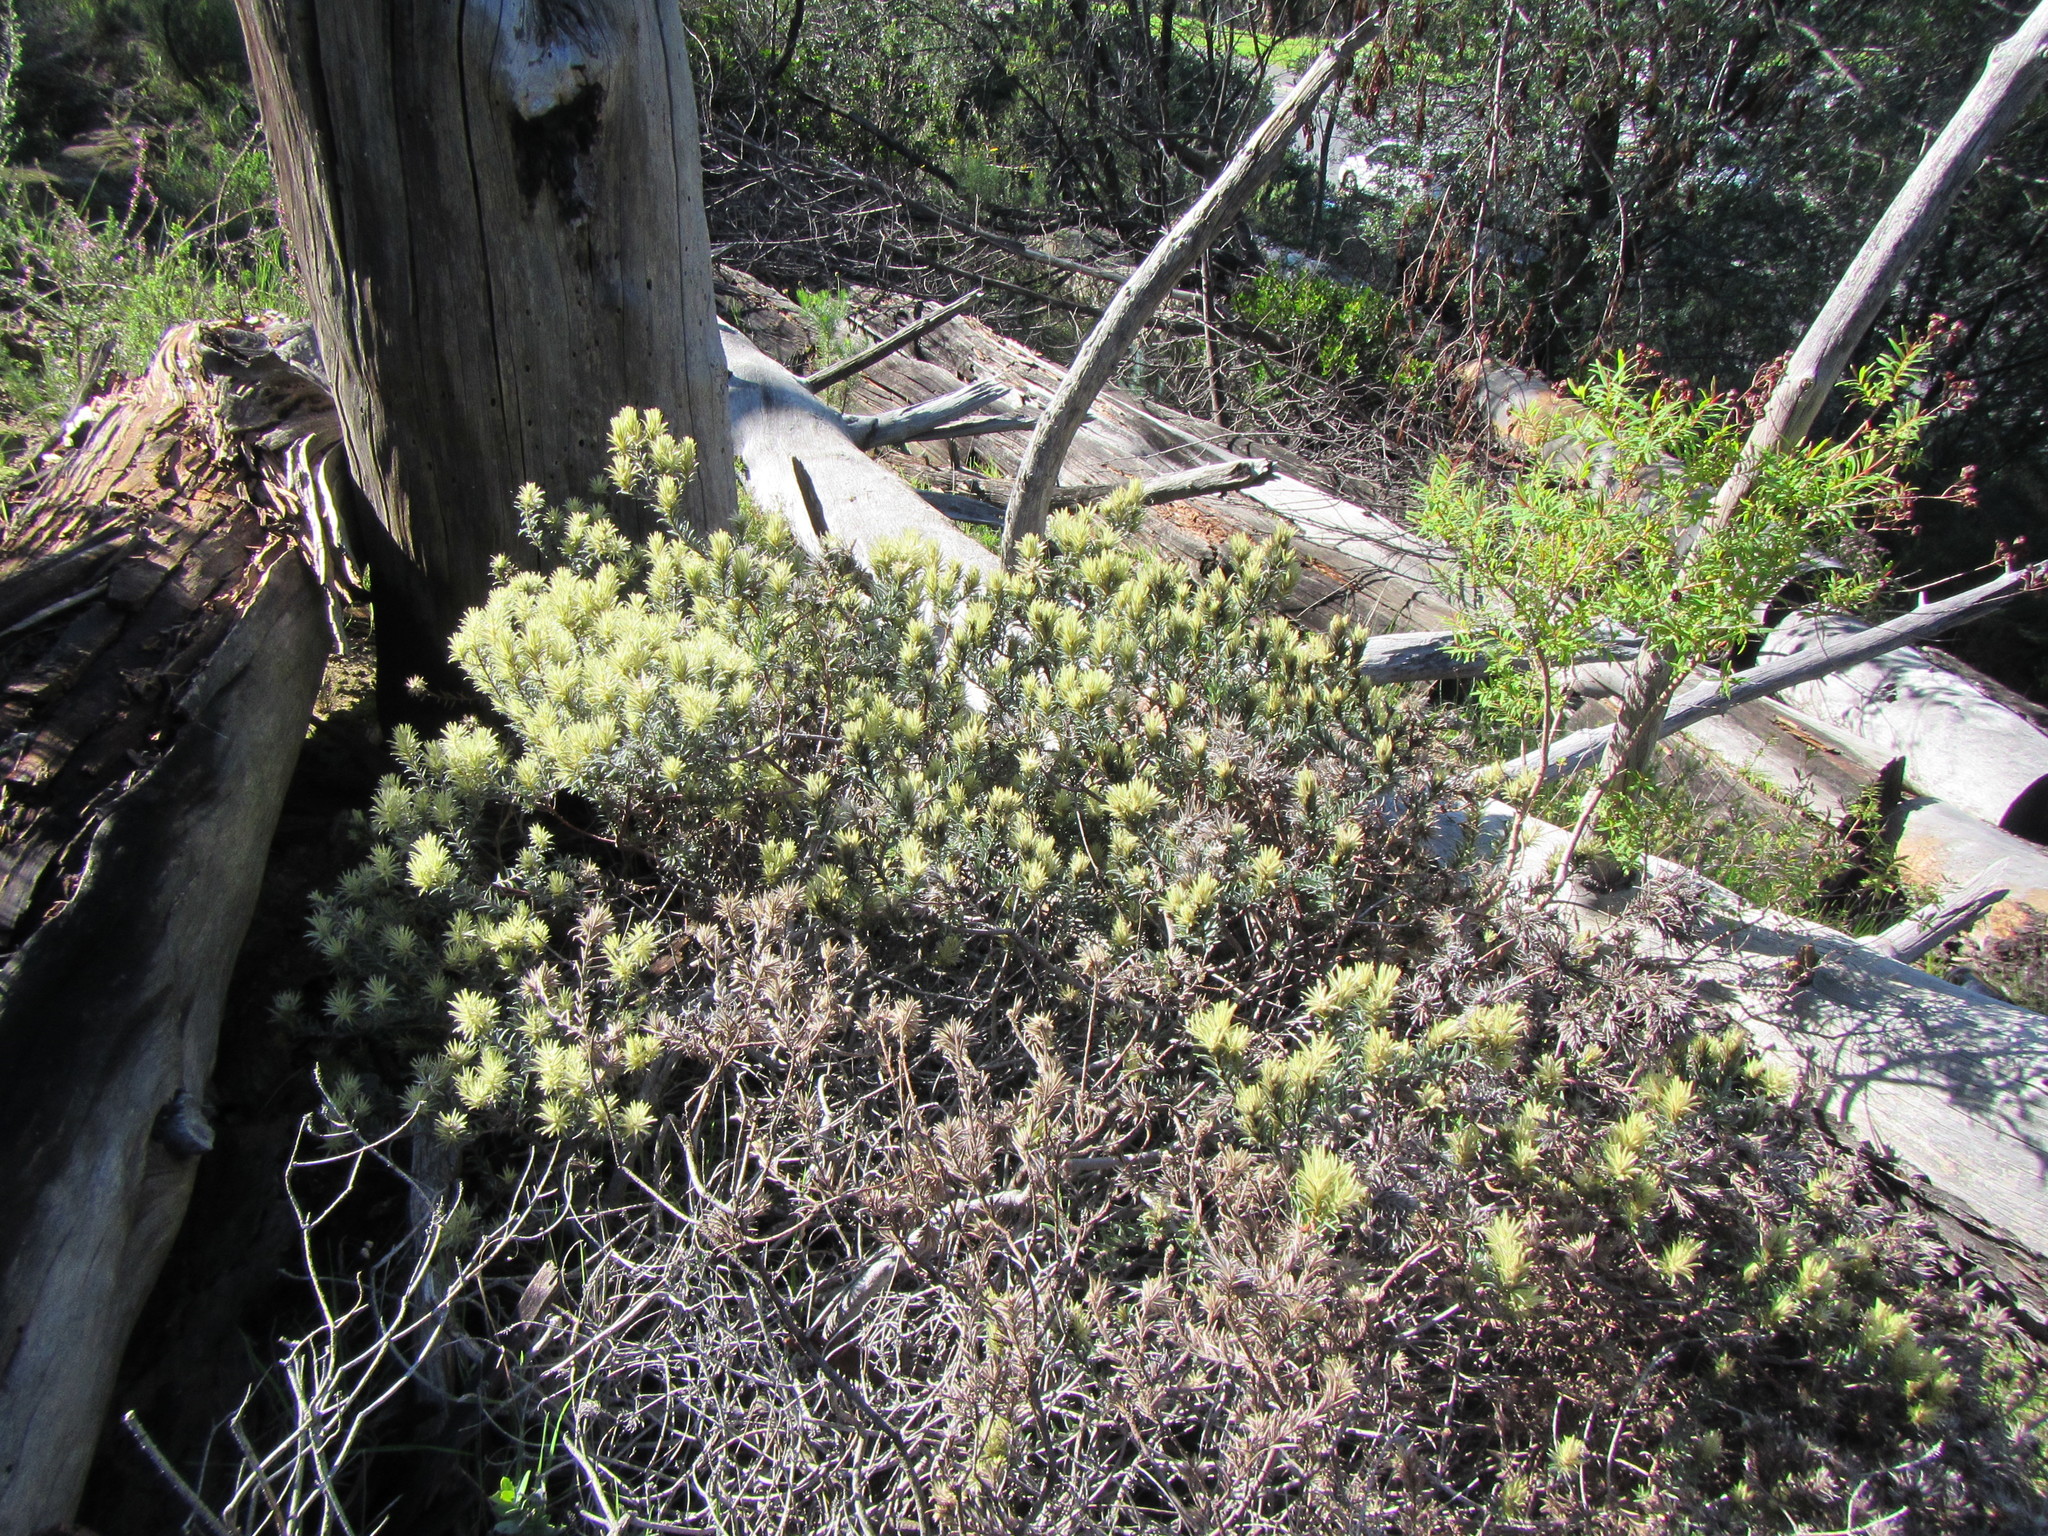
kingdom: Plantae
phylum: Tracheophyta
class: Magnoliopsida
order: Rosales
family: Rhamnaceae
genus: Phylica
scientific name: Phylica pubescens
